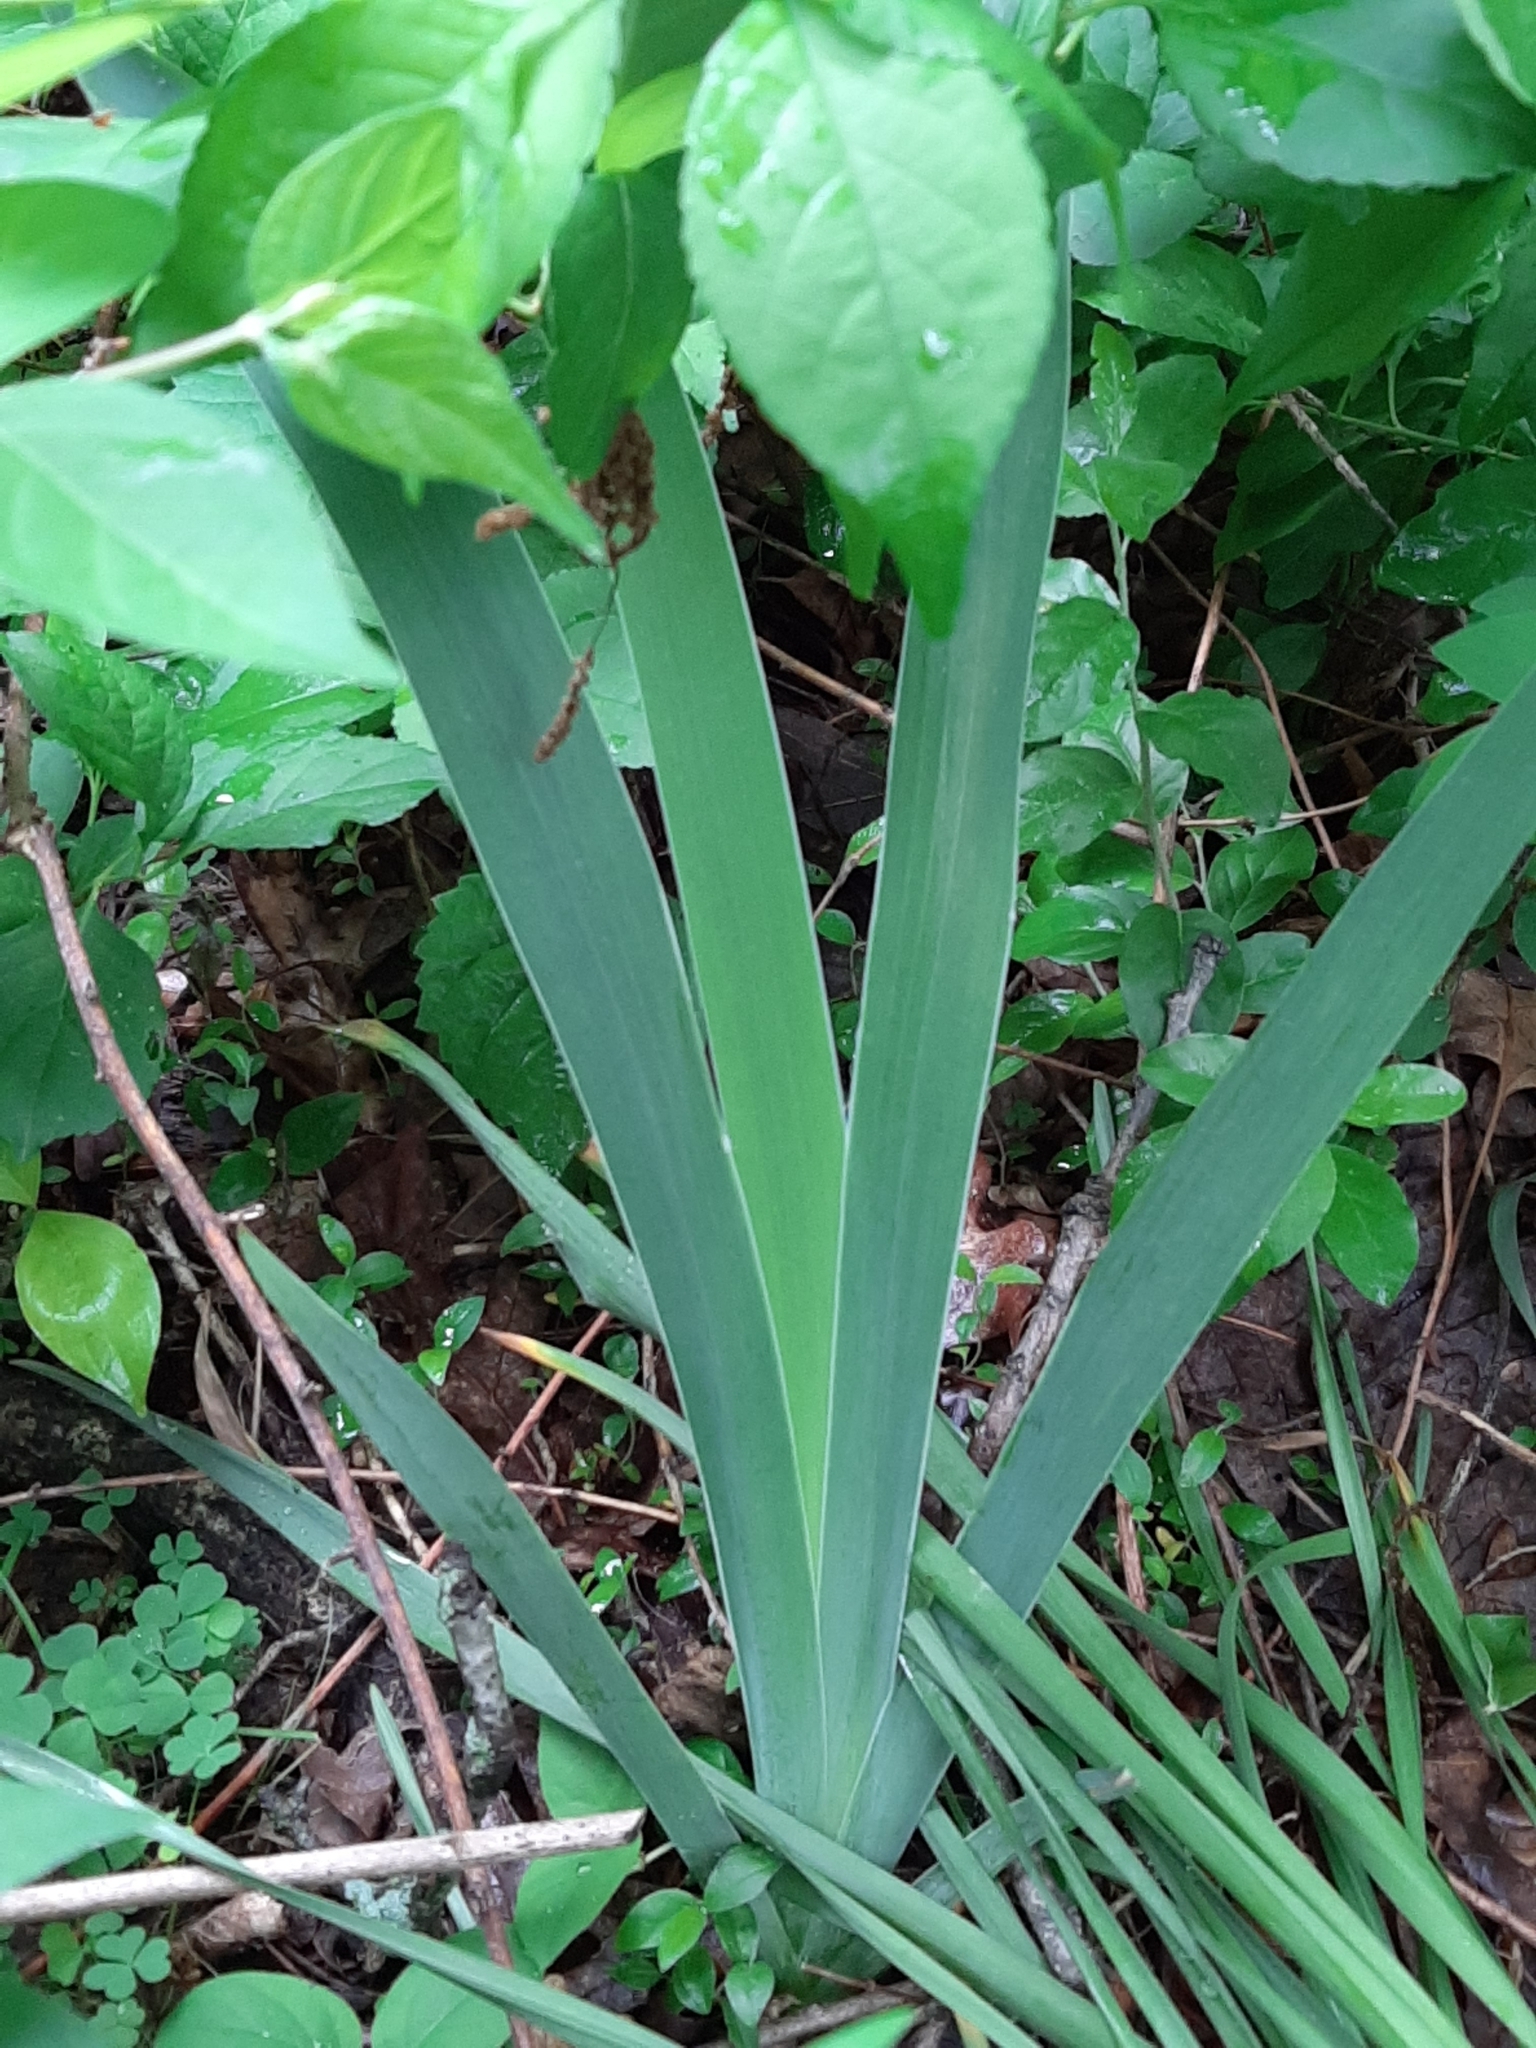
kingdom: Plantae
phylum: Tracheophyta
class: Liliopsida
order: Asparagales
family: Iridaceae
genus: Iris
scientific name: Iris domestica
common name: Belamcanda
